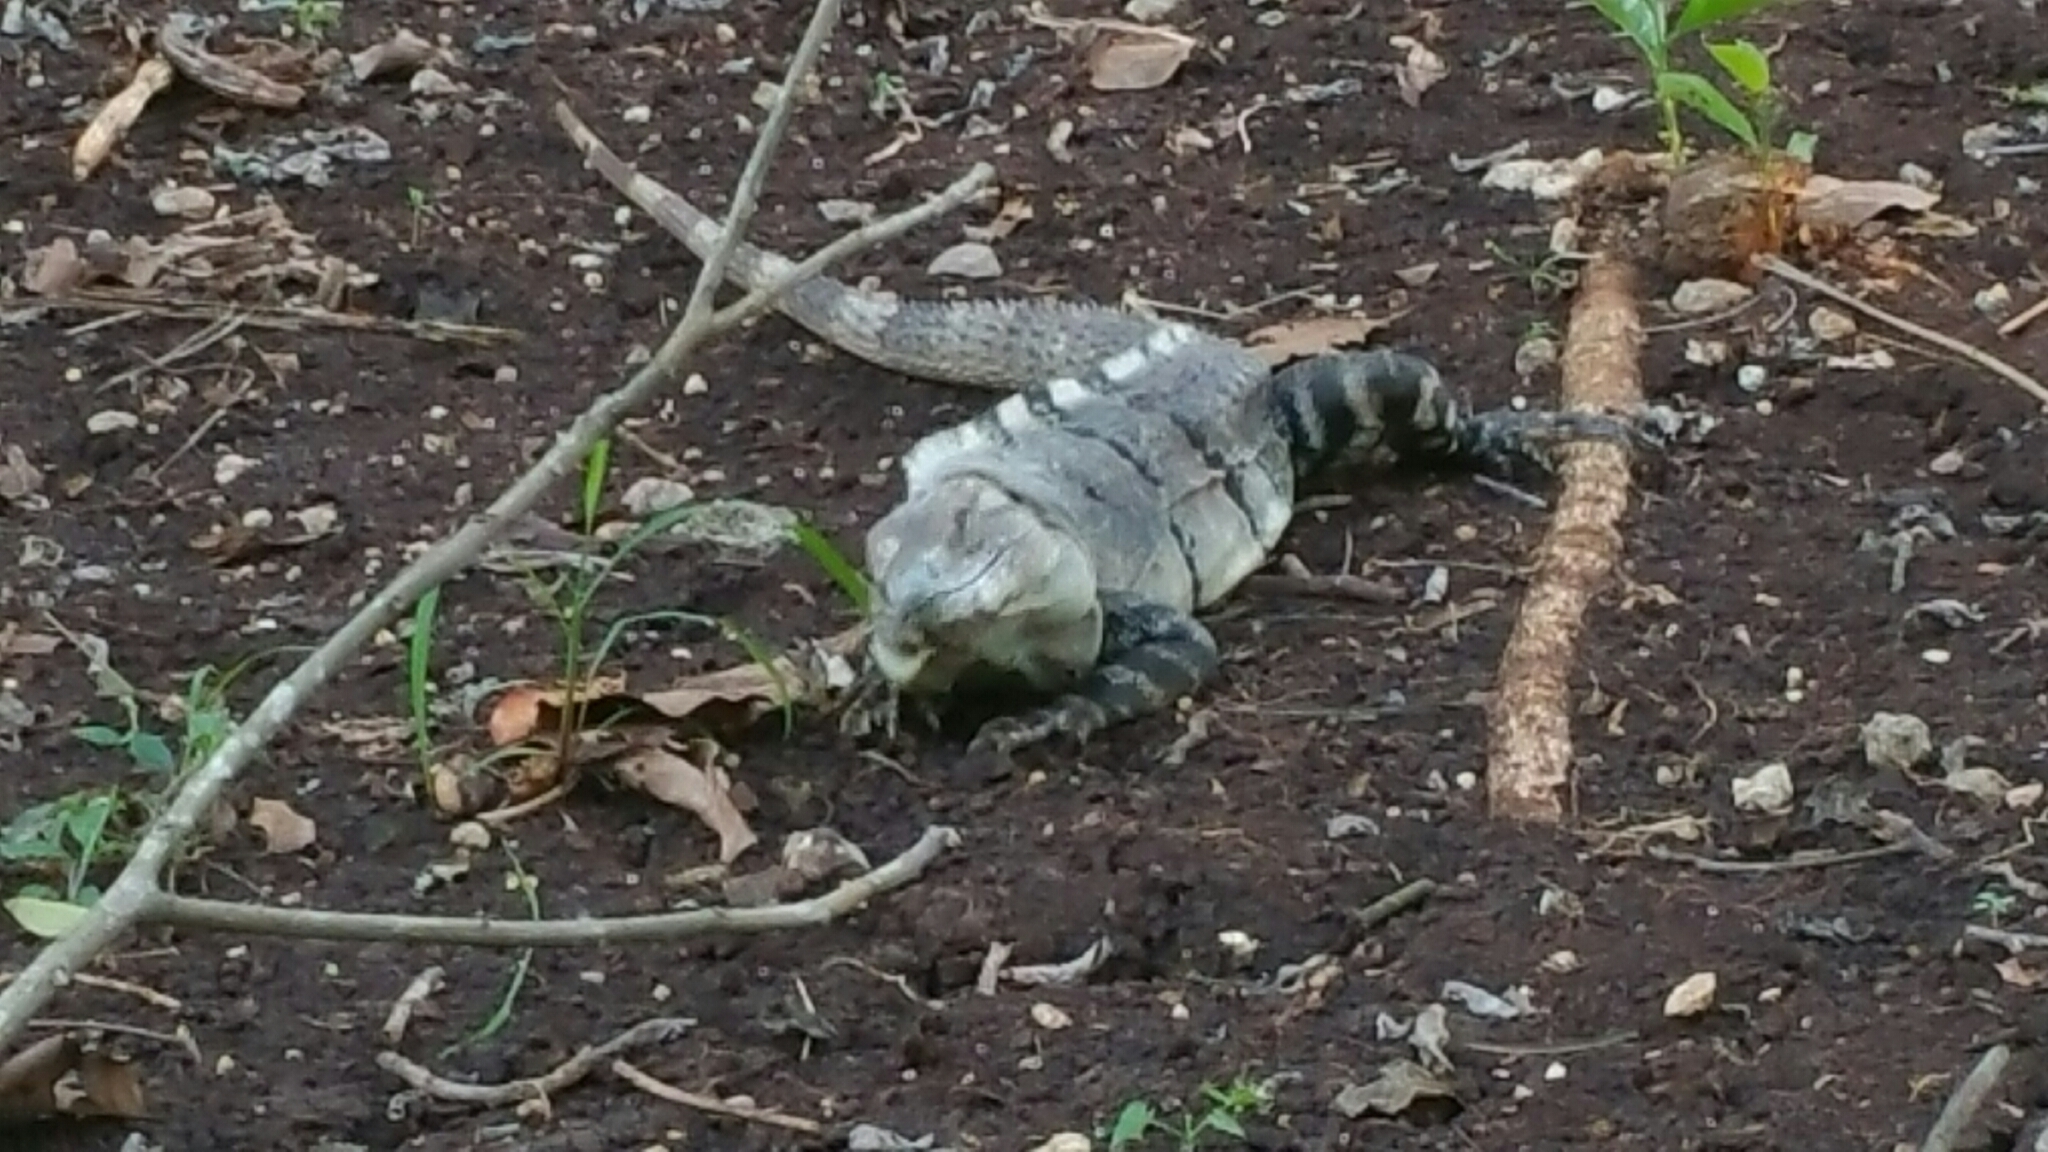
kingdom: Animalia
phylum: Chordata
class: Squamata
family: Iguanidae
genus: Ctenosaura
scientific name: Ctenosaura similis
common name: Black spiny-tailed iguana
